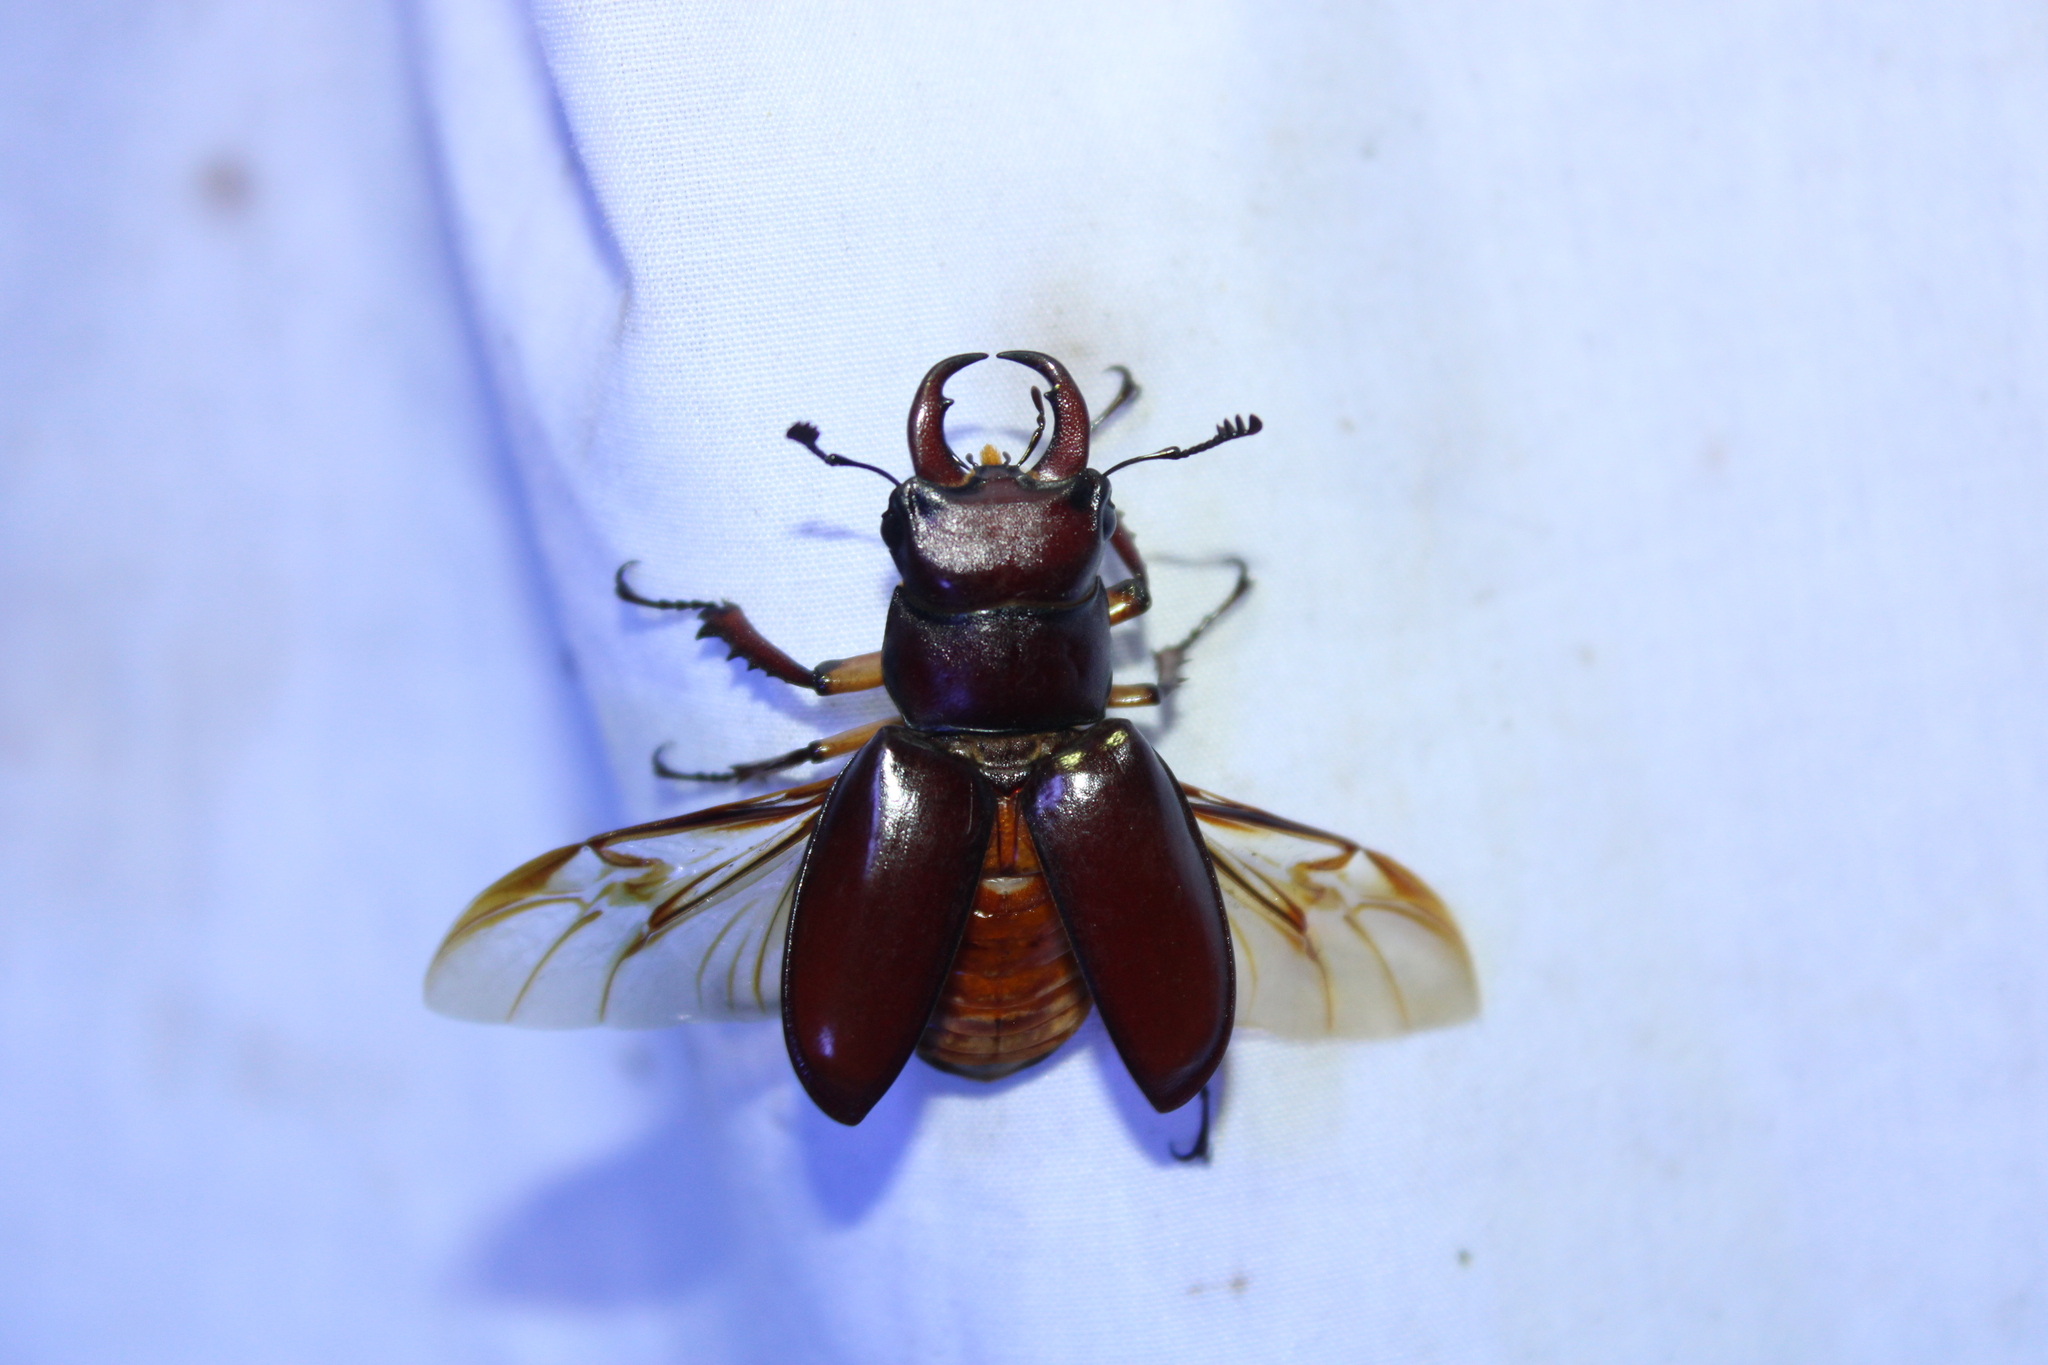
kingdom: Animalia
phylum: Arthropoda
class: Insecta
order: Coleoptera
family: Lucanidae
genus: Lucanus
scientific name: Lucanus capreolus
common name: Stag beetle
